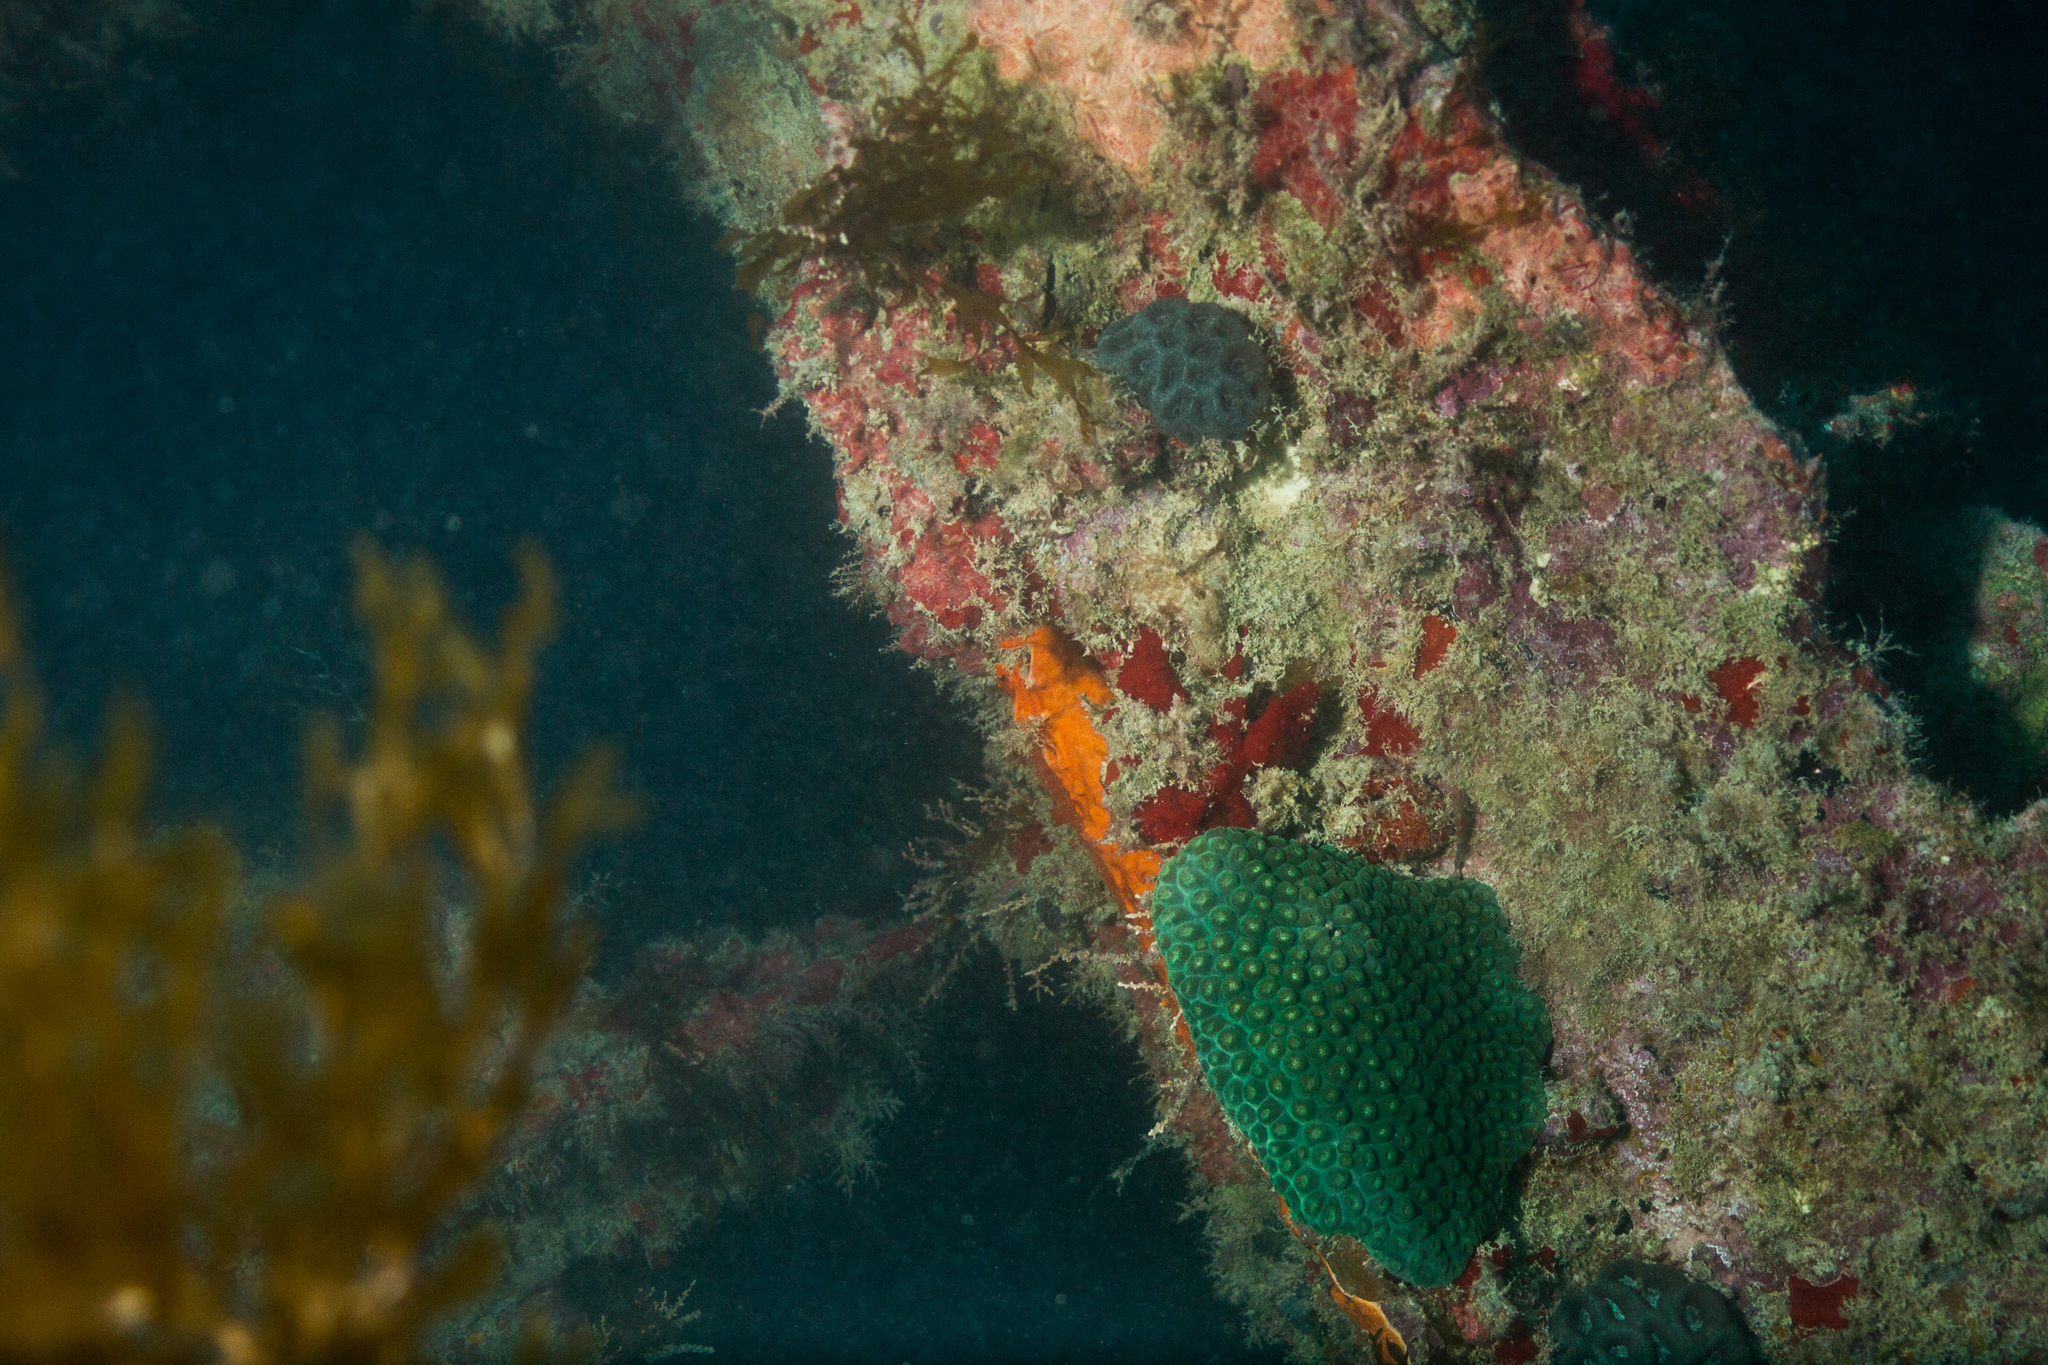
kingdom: Animalia
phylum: Cnidaria
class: Anthozoa
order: Scleractinia
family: Montastraeidae
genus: Montastraea
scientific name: Montastraea cavernosa
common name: Great star coral
